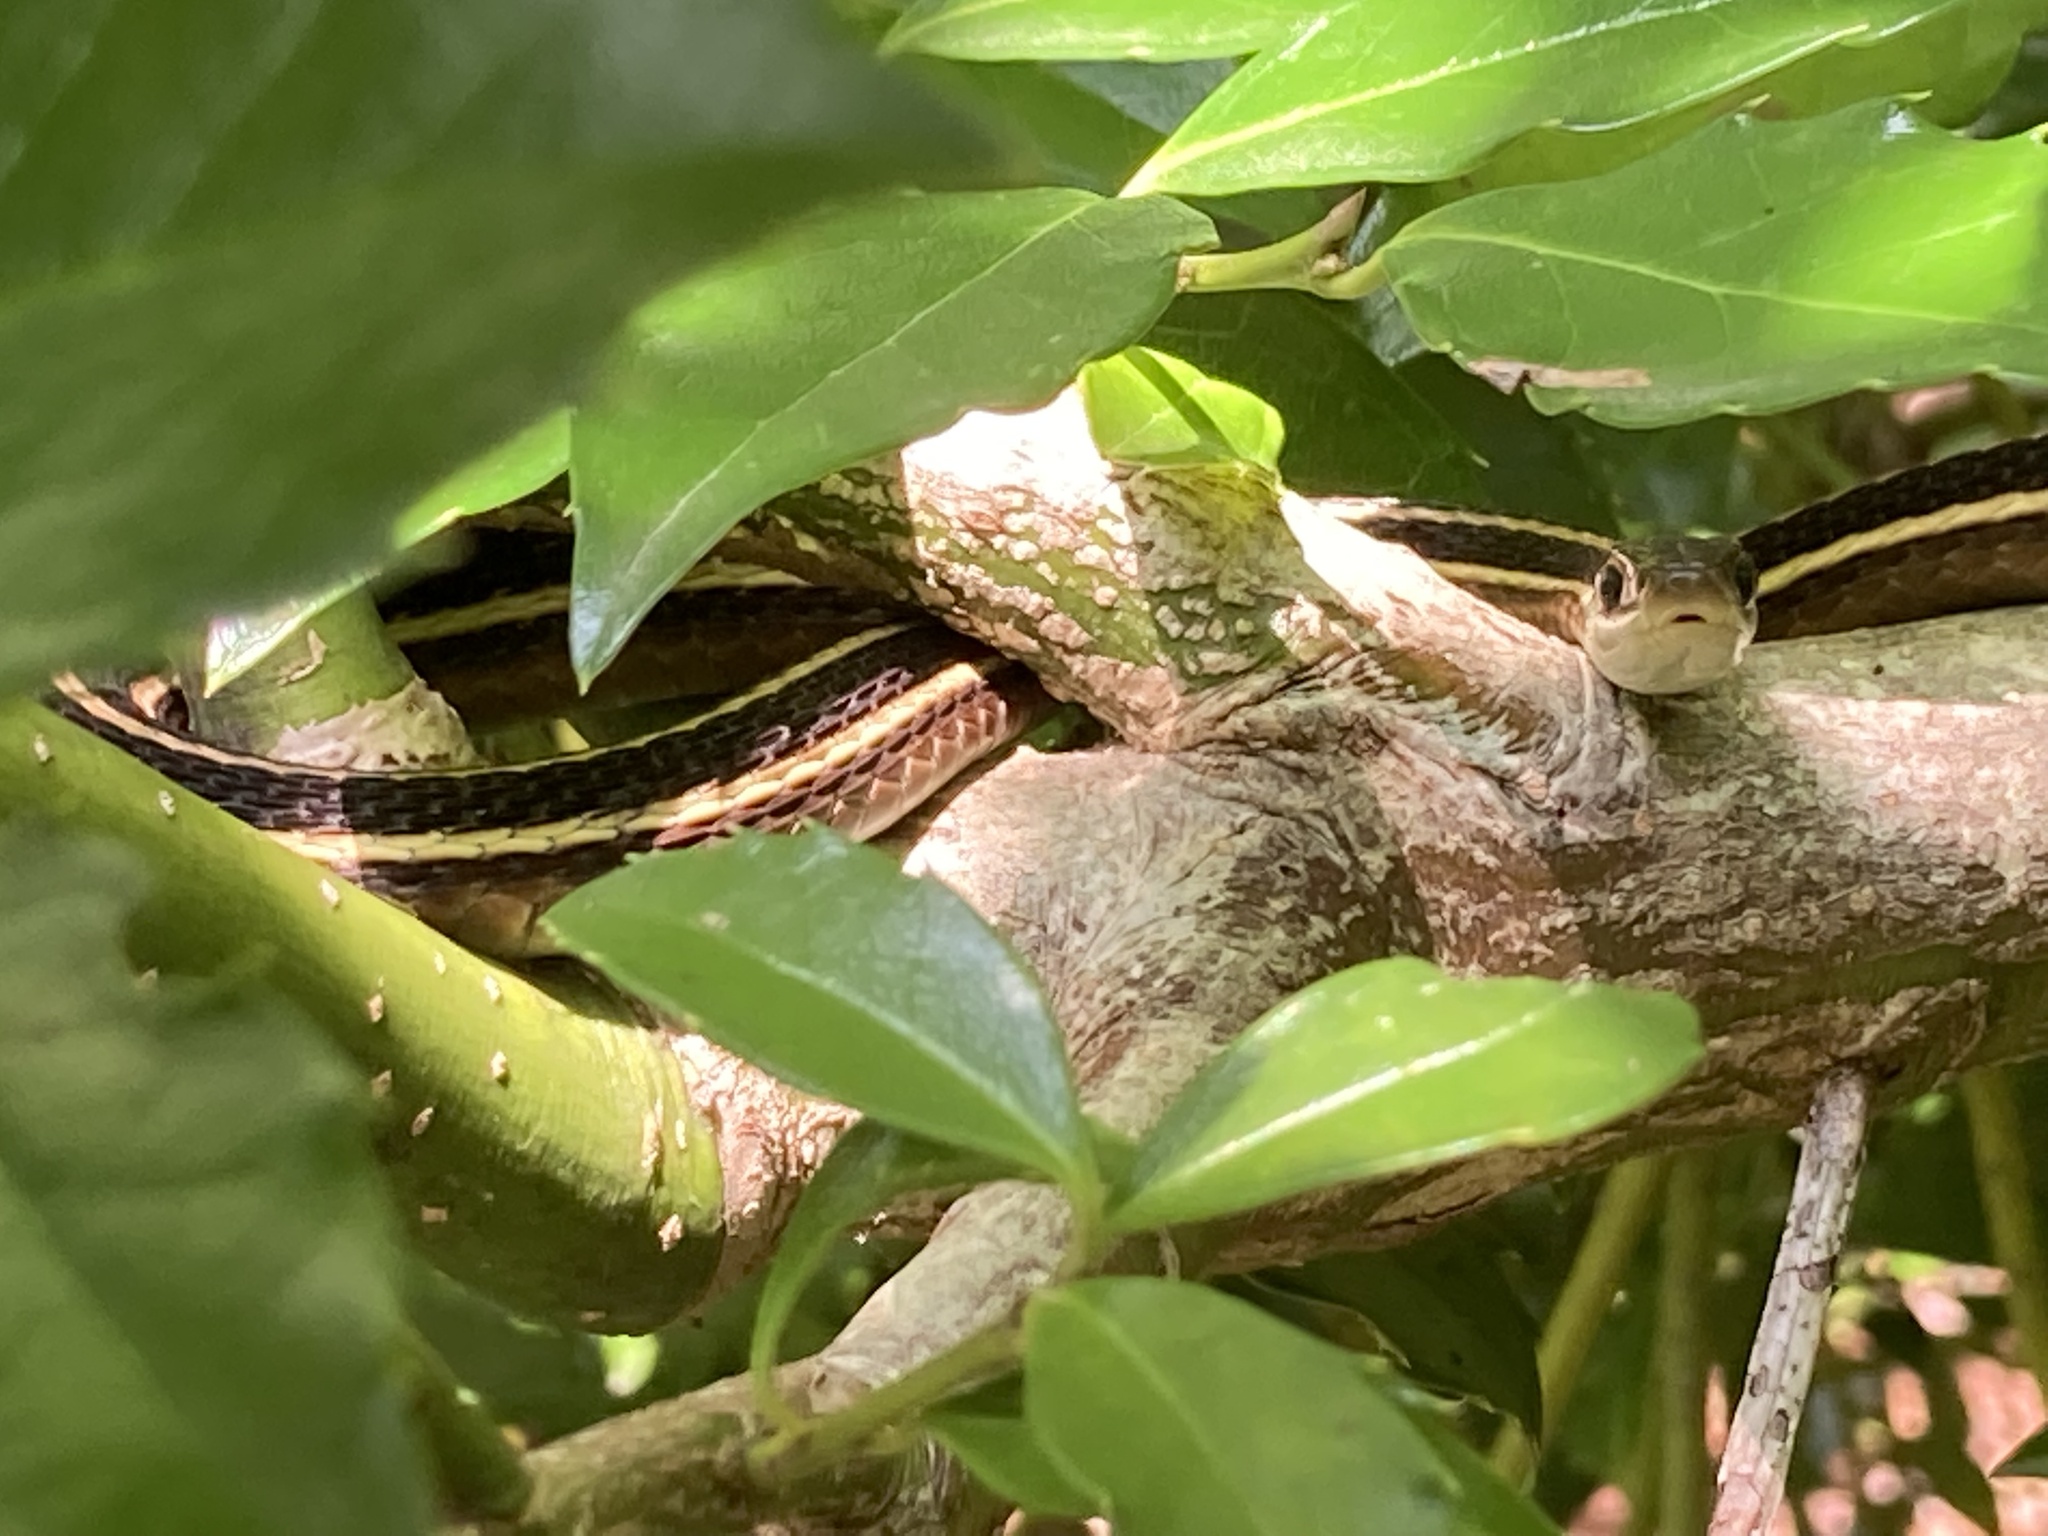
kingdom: Animalia
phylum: Chordata
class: Squamata
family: Colubridae
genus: Thamnophis
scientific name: Thamnophis saurita
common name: Eastern ribbonsnake
